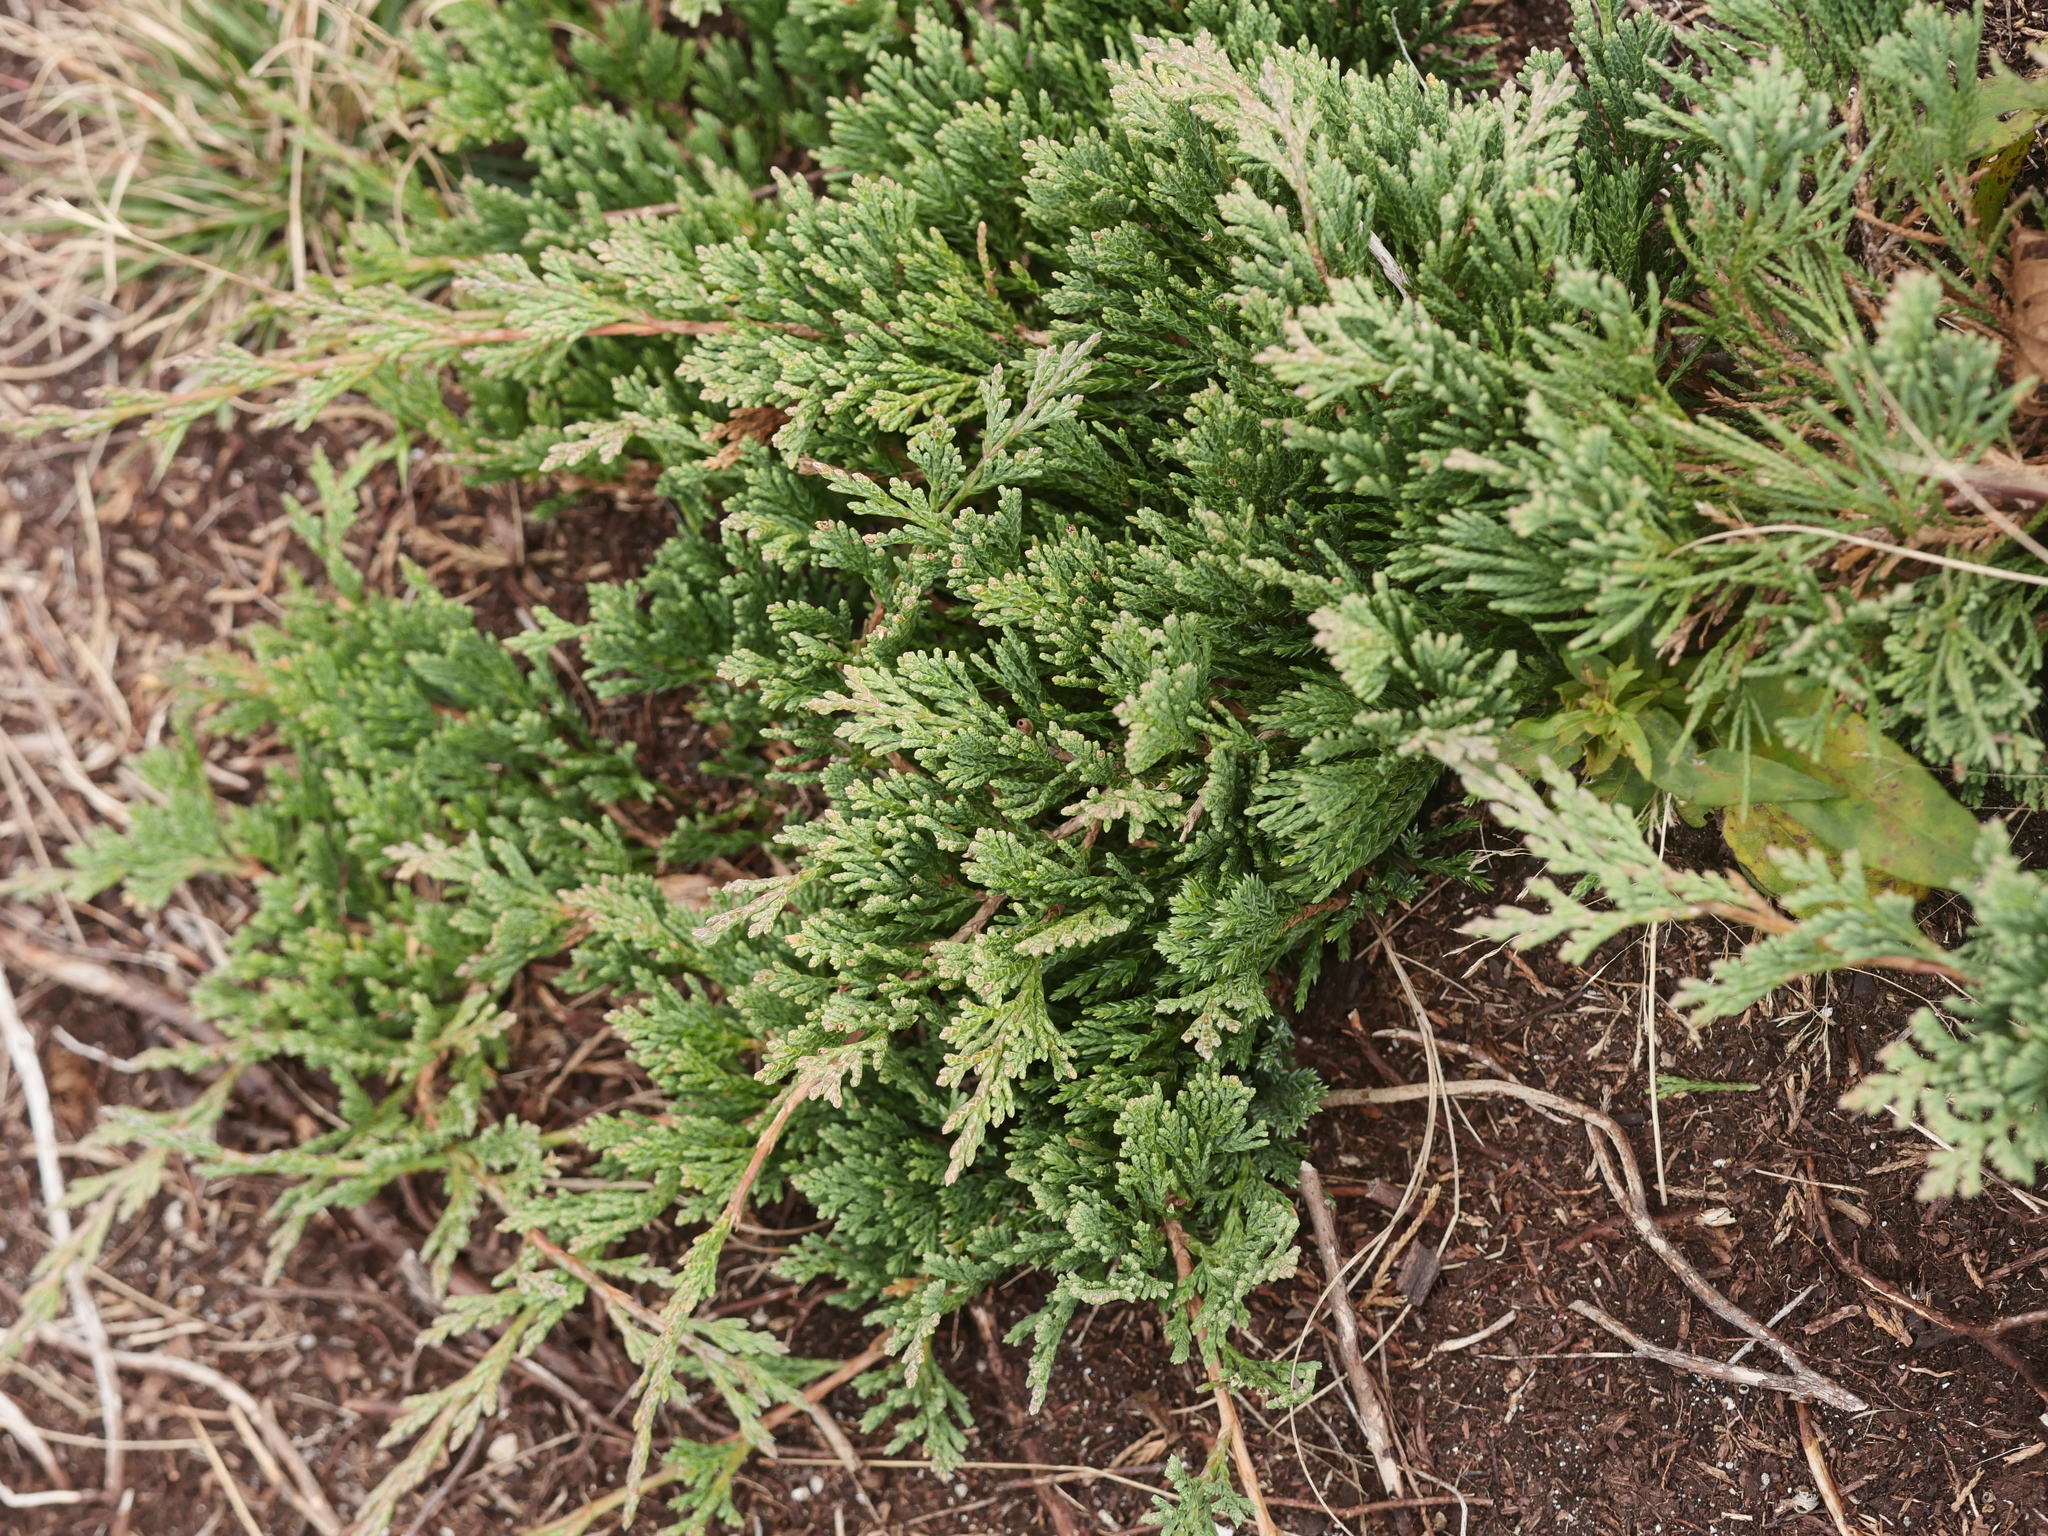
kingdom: Plantae
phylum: Tracheophyta
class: Pinopsida
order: Pinales
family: Cupressaceae
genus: Juniperus
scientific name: Juniperus horizontalis
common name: Creeping juniper
